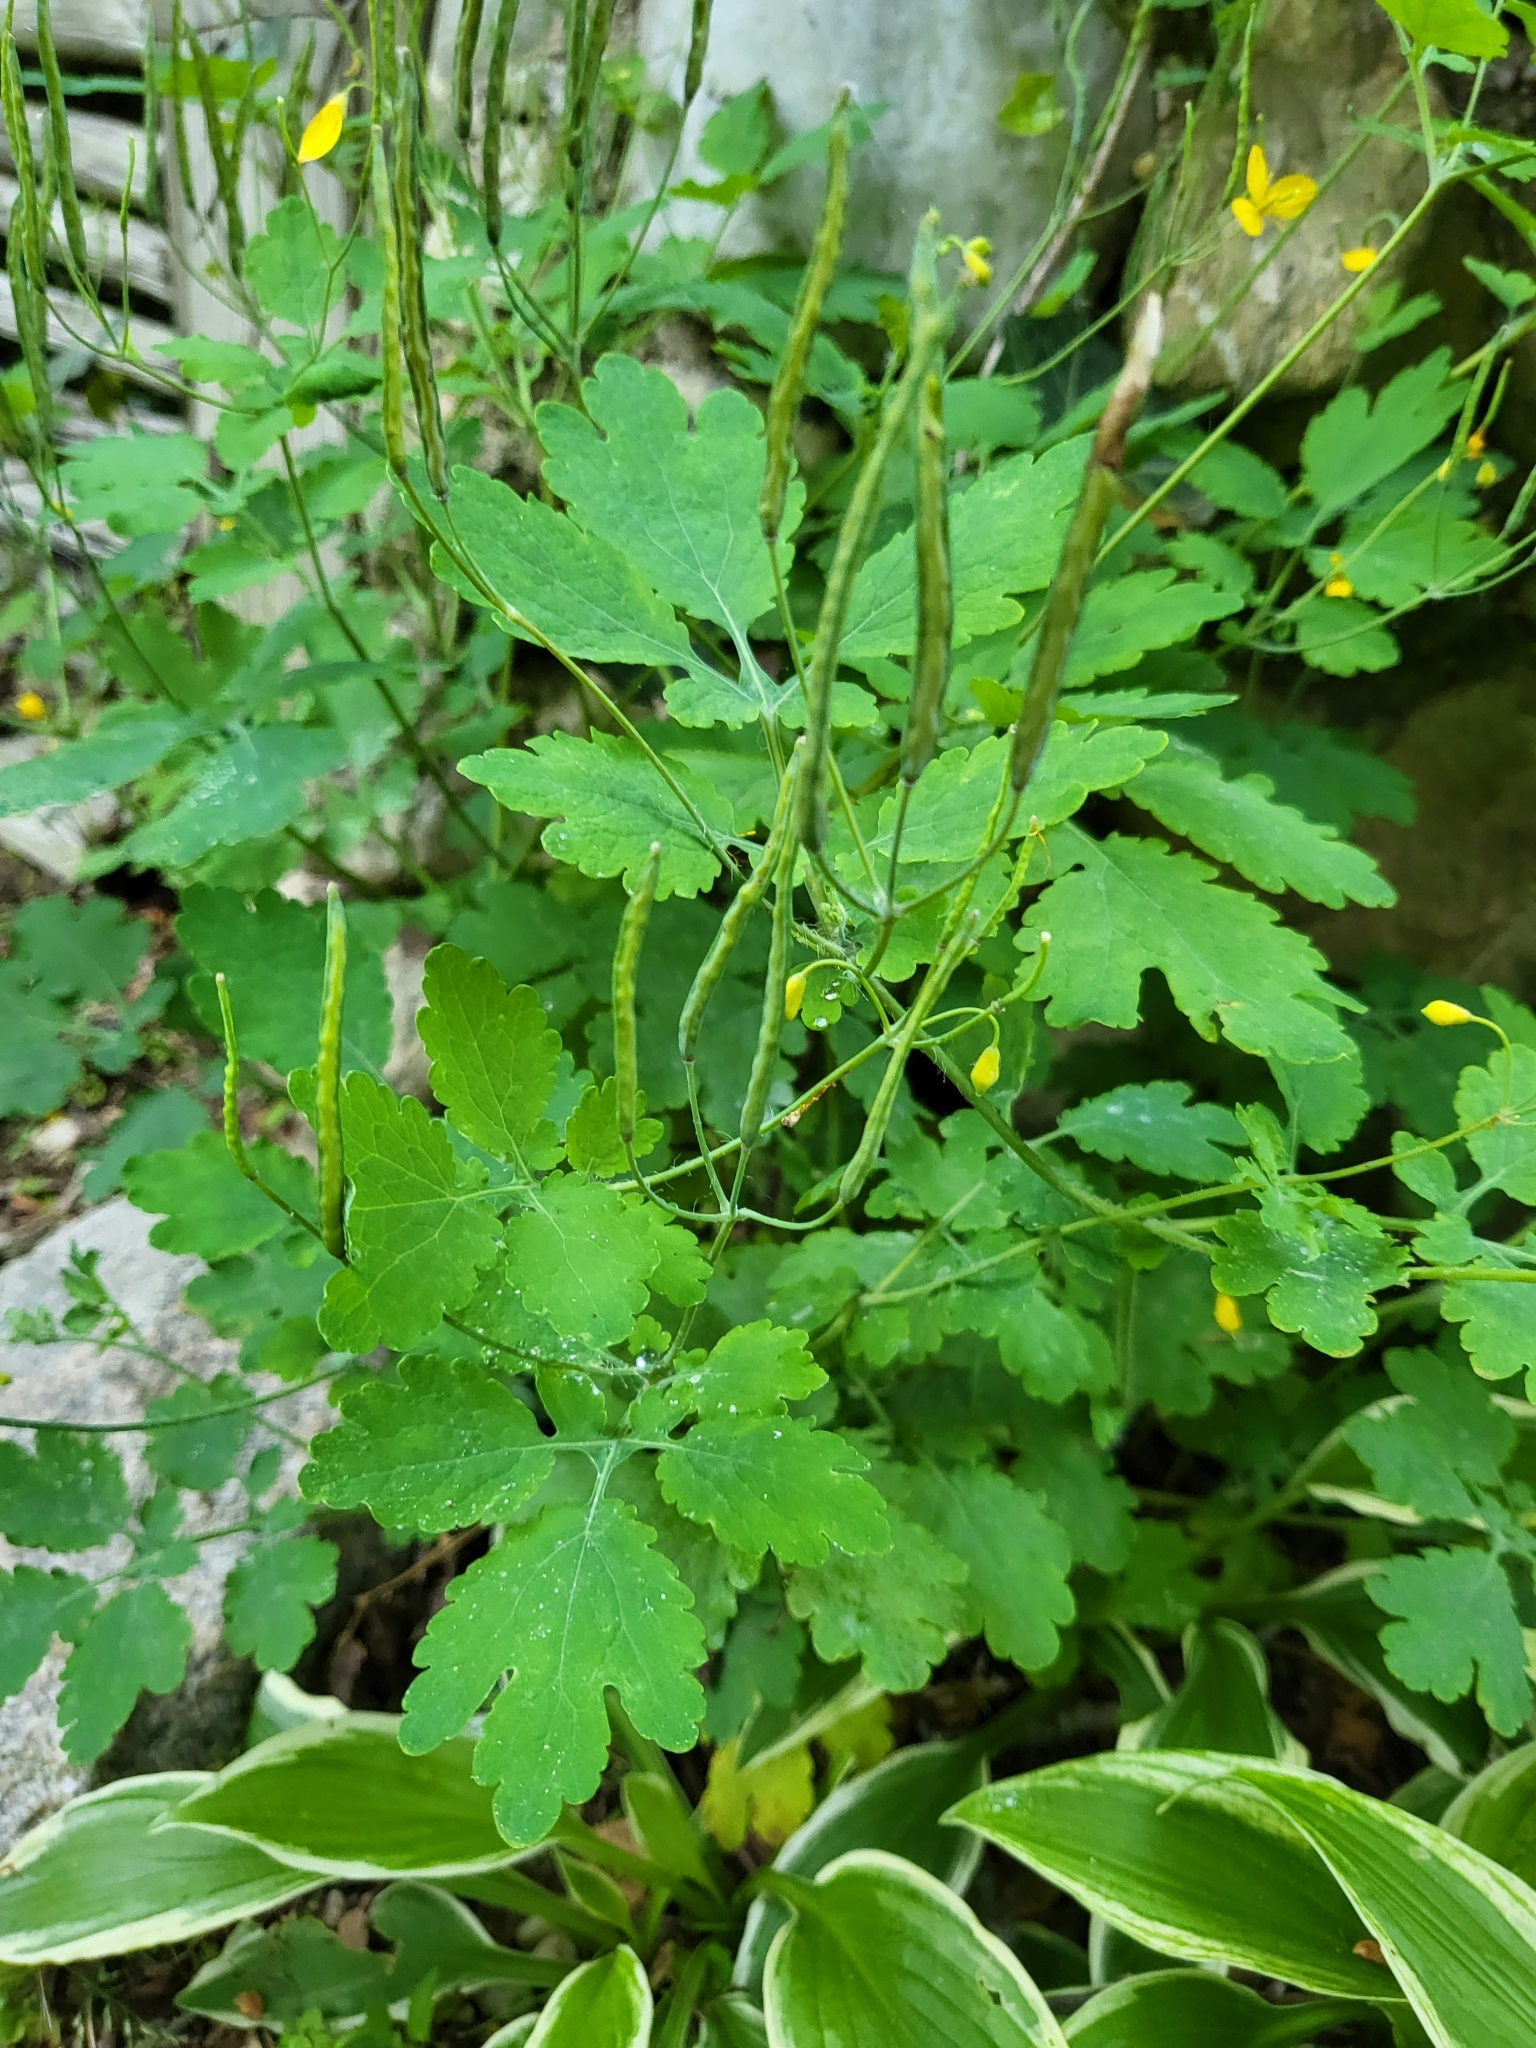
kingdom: Plantae
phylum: Tracheophyta
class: Magnoliopsida
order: Ranunculales
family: Papaveraceae
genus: Chelidonium
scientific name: Chelidonium majus
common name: Greater celandine
